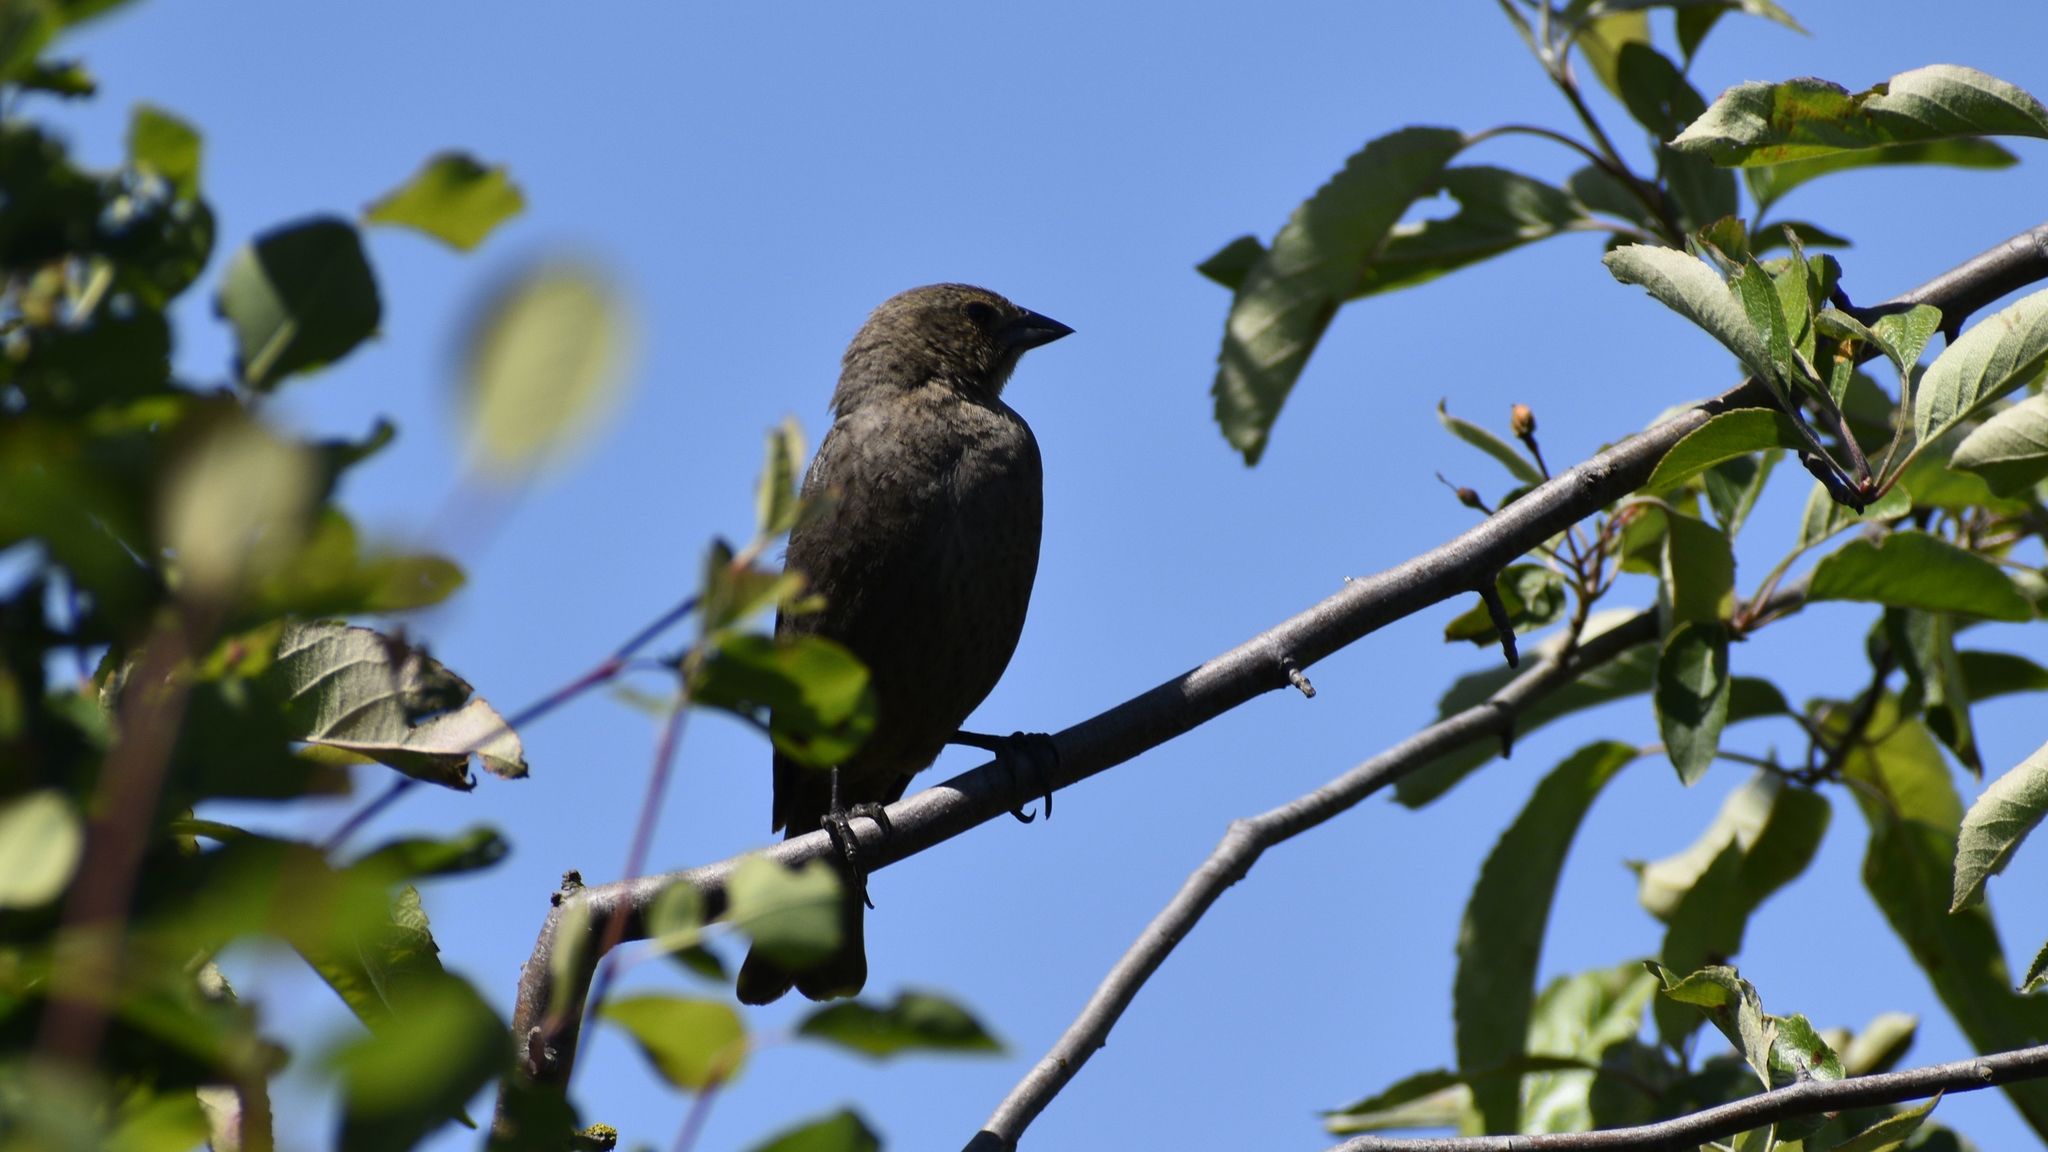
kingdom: Animalia
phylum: Chordata
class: Aves
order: Passeriformes
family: Icteridae
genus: Molothrus
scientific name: Molothrus ater
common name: Brown-headed cowbird
